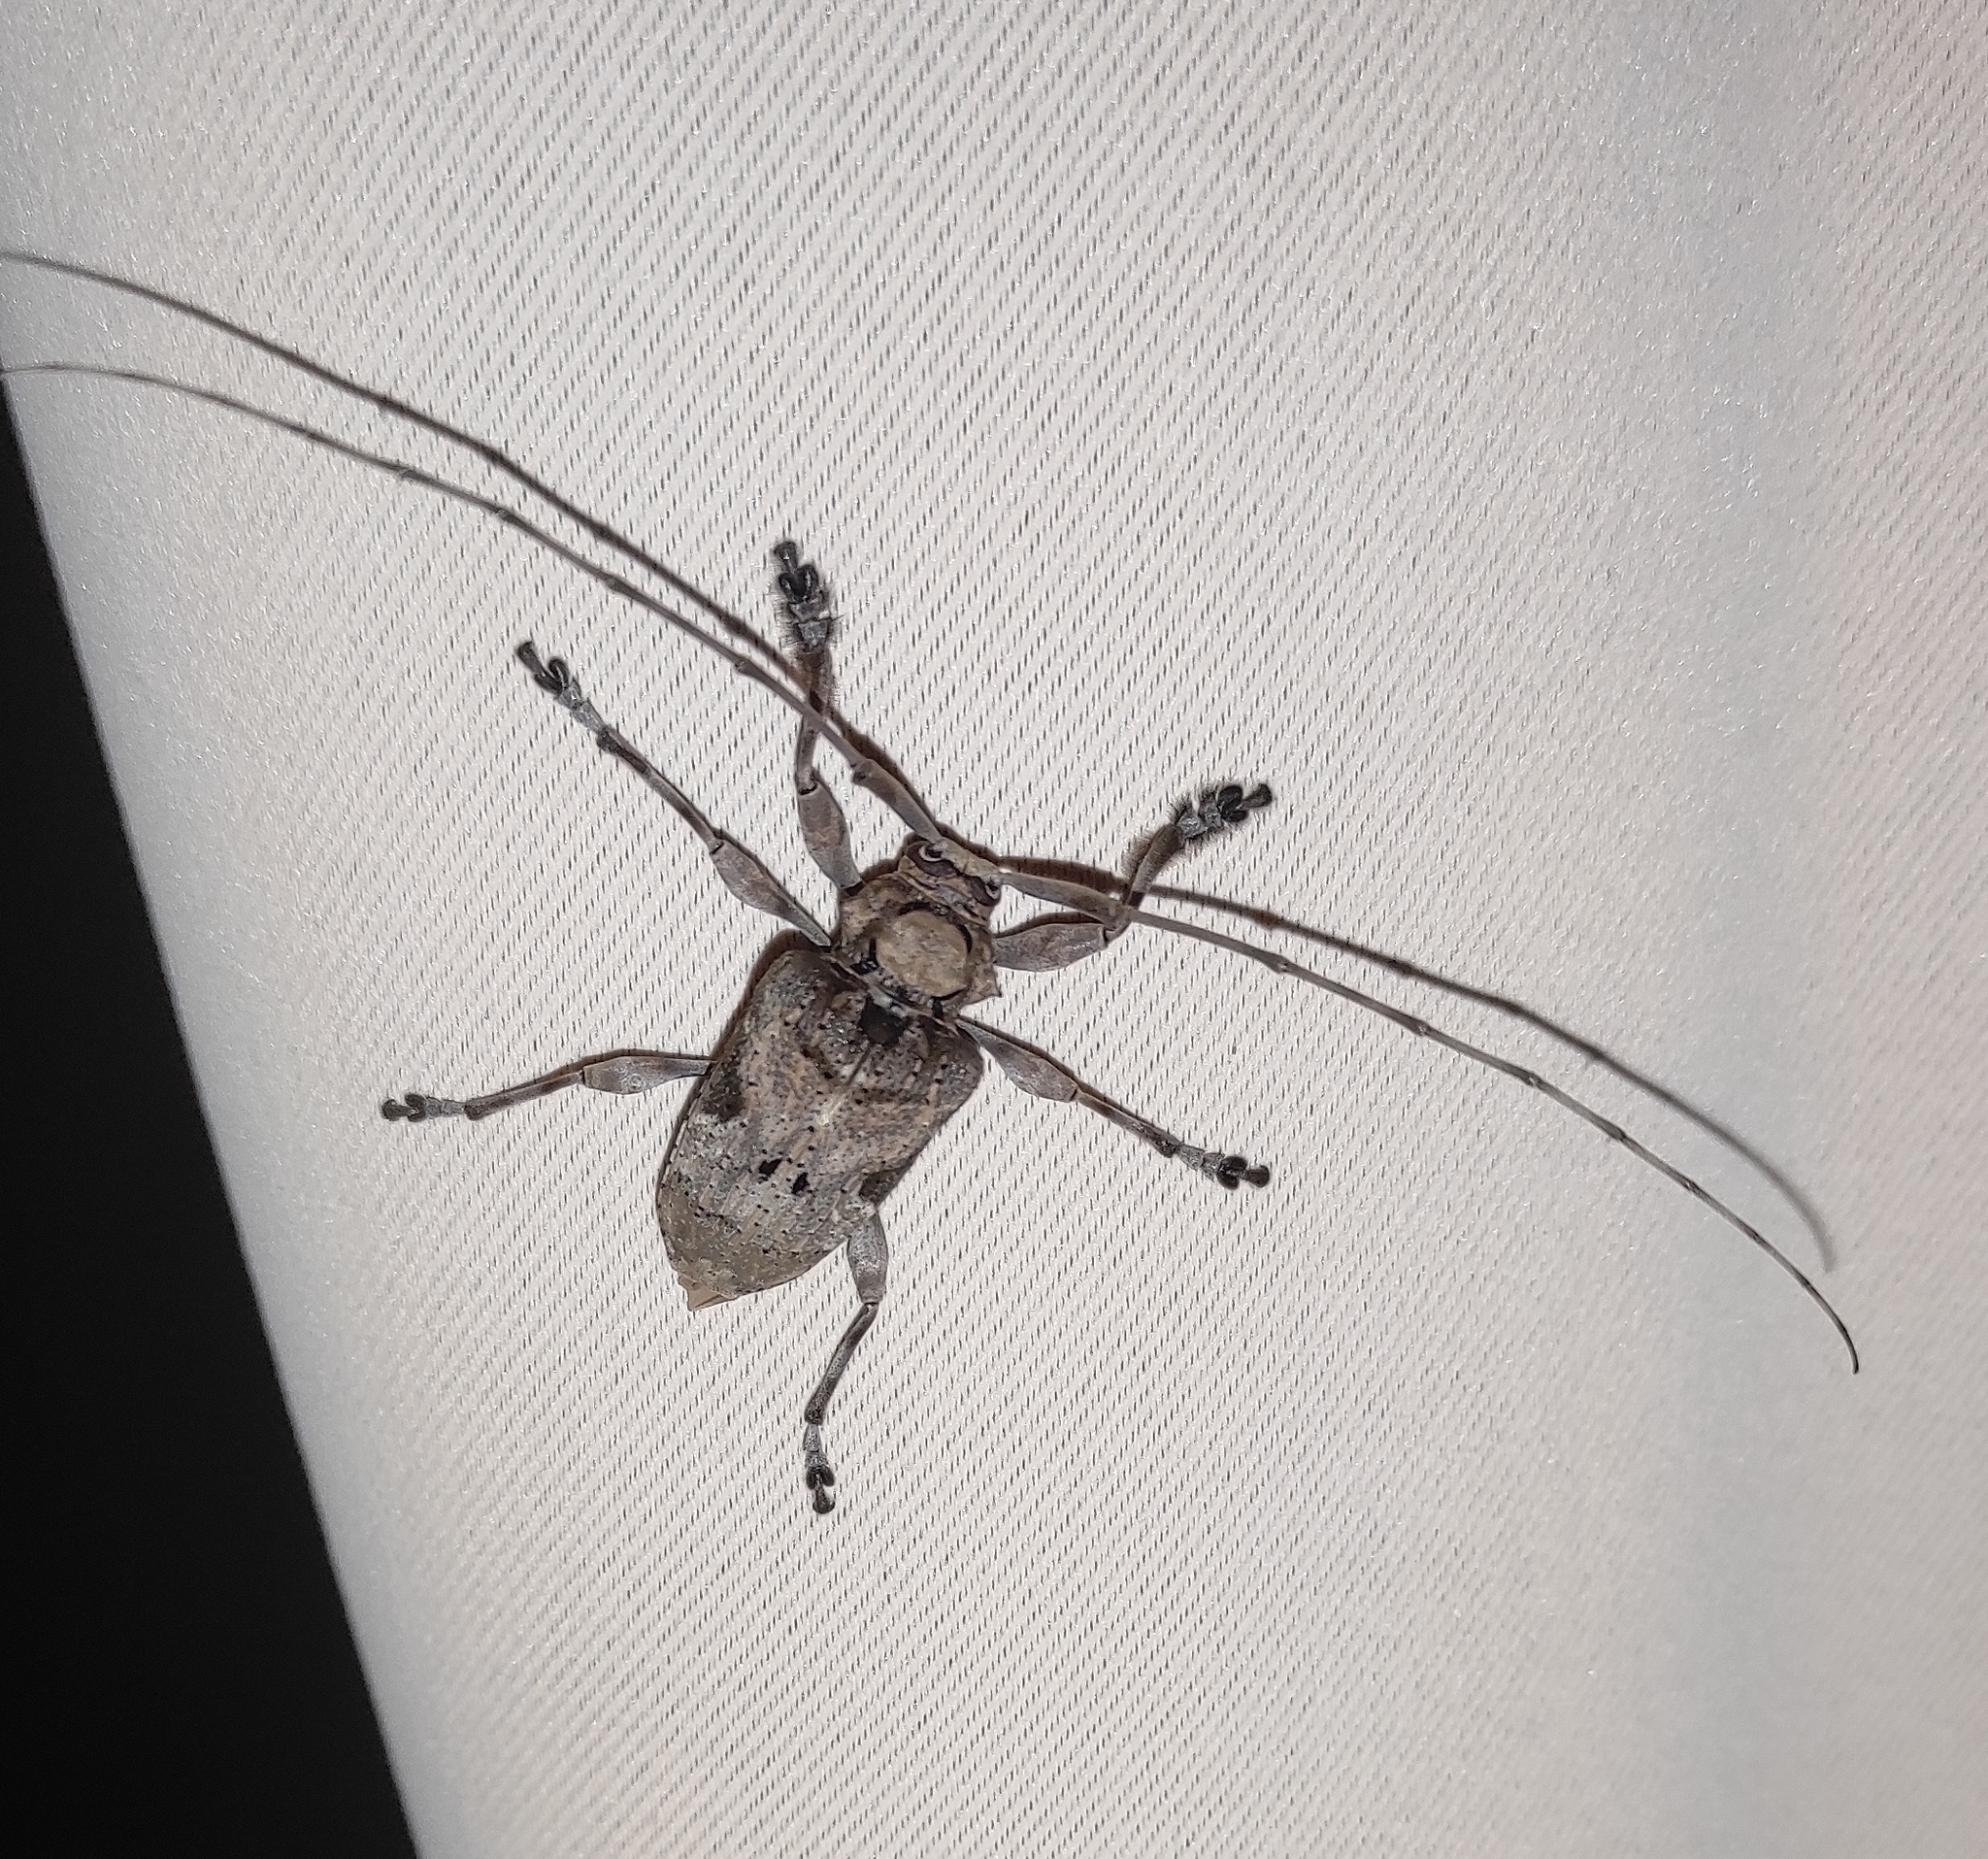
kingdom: Animalia
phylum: Arthropoda
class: Insecta
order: Coleoptera
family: Cerambycidae
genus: Lagocheirus
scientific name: Lagocheirus araneiformis
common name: Beetle
